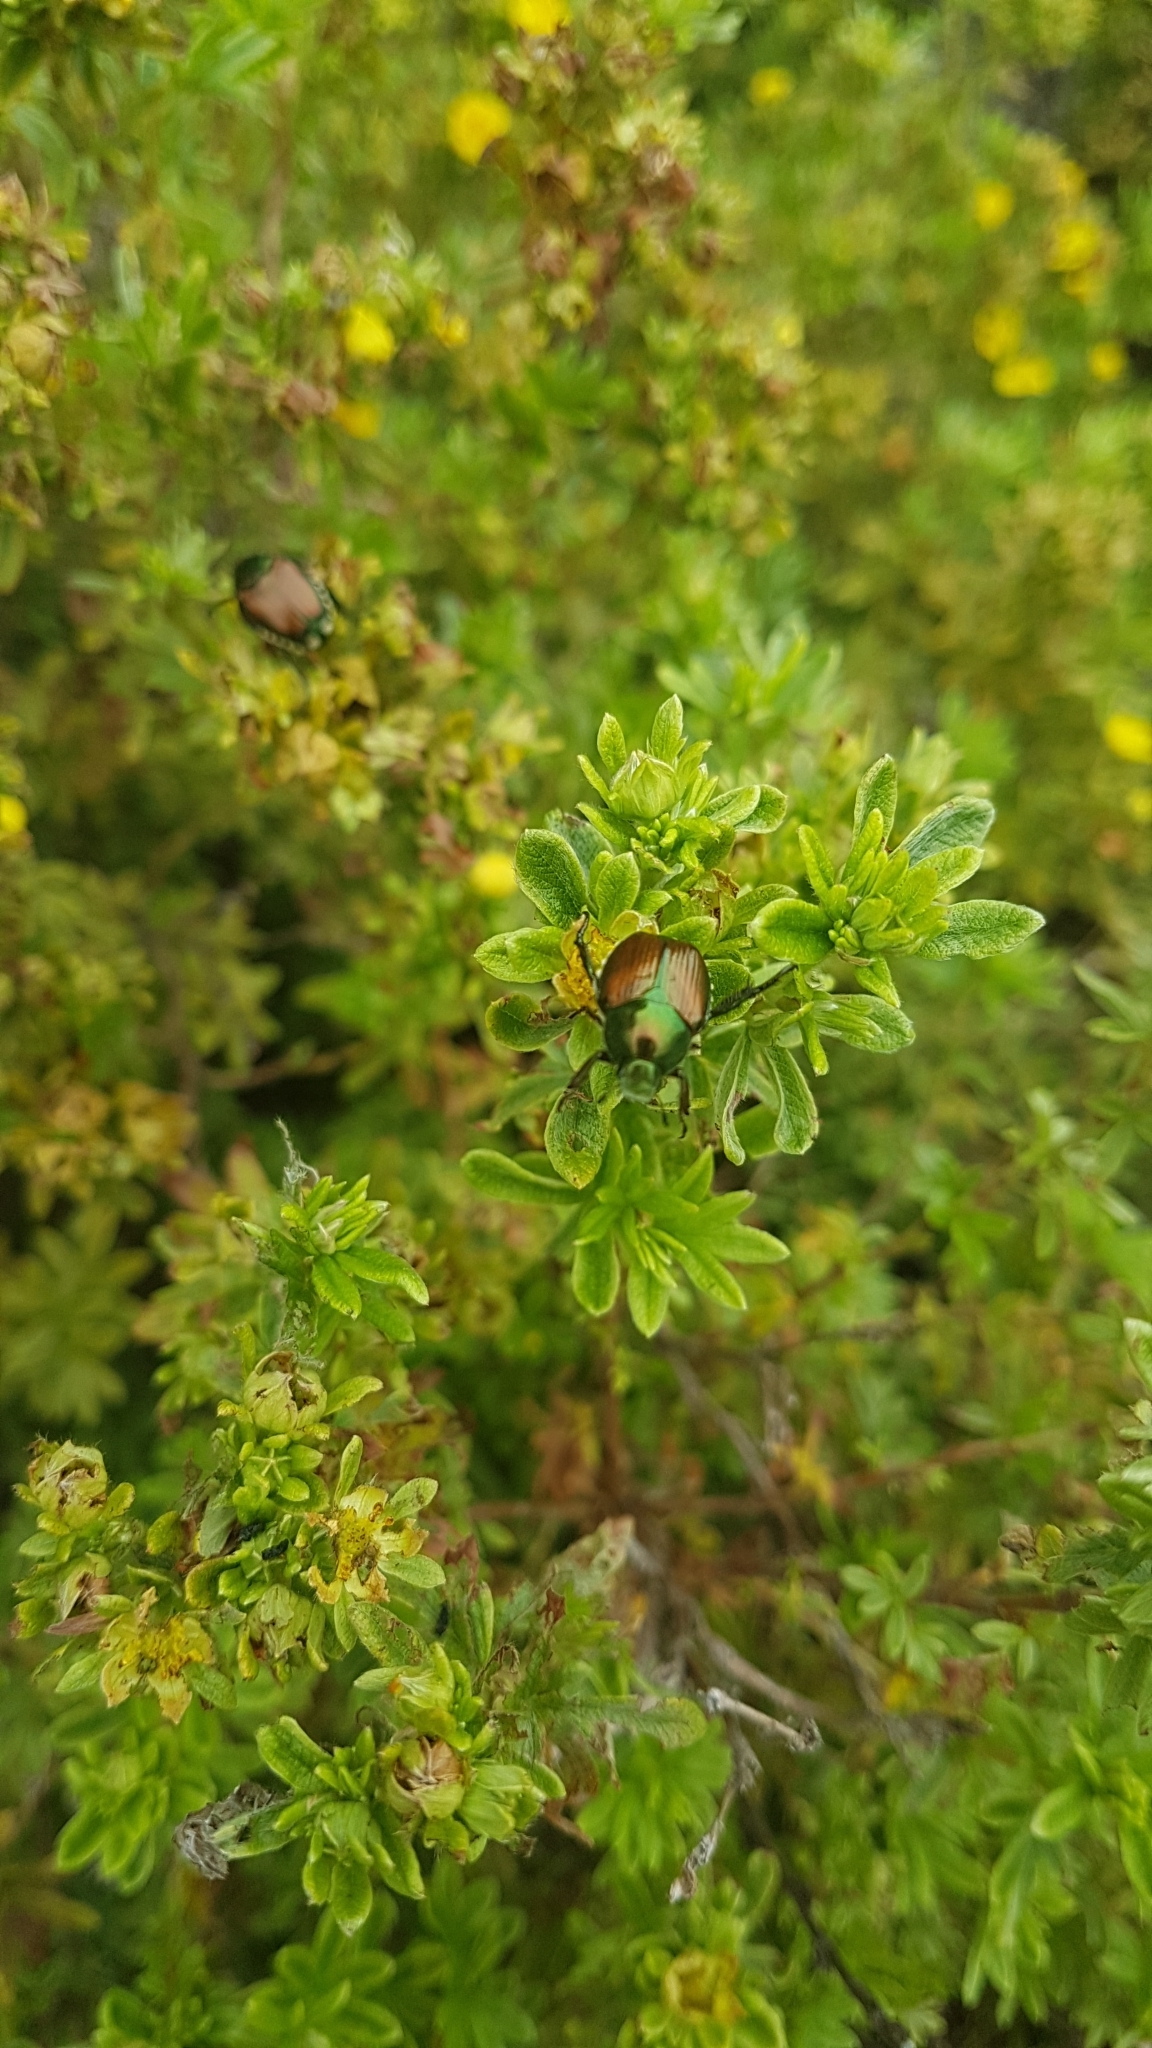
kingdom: Animalia
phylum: Arthropoda
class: Insecta
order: Coleoptera
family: Scarabaeidae
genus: Popillia
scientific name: Popillia japonica
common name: Japanese beetle
